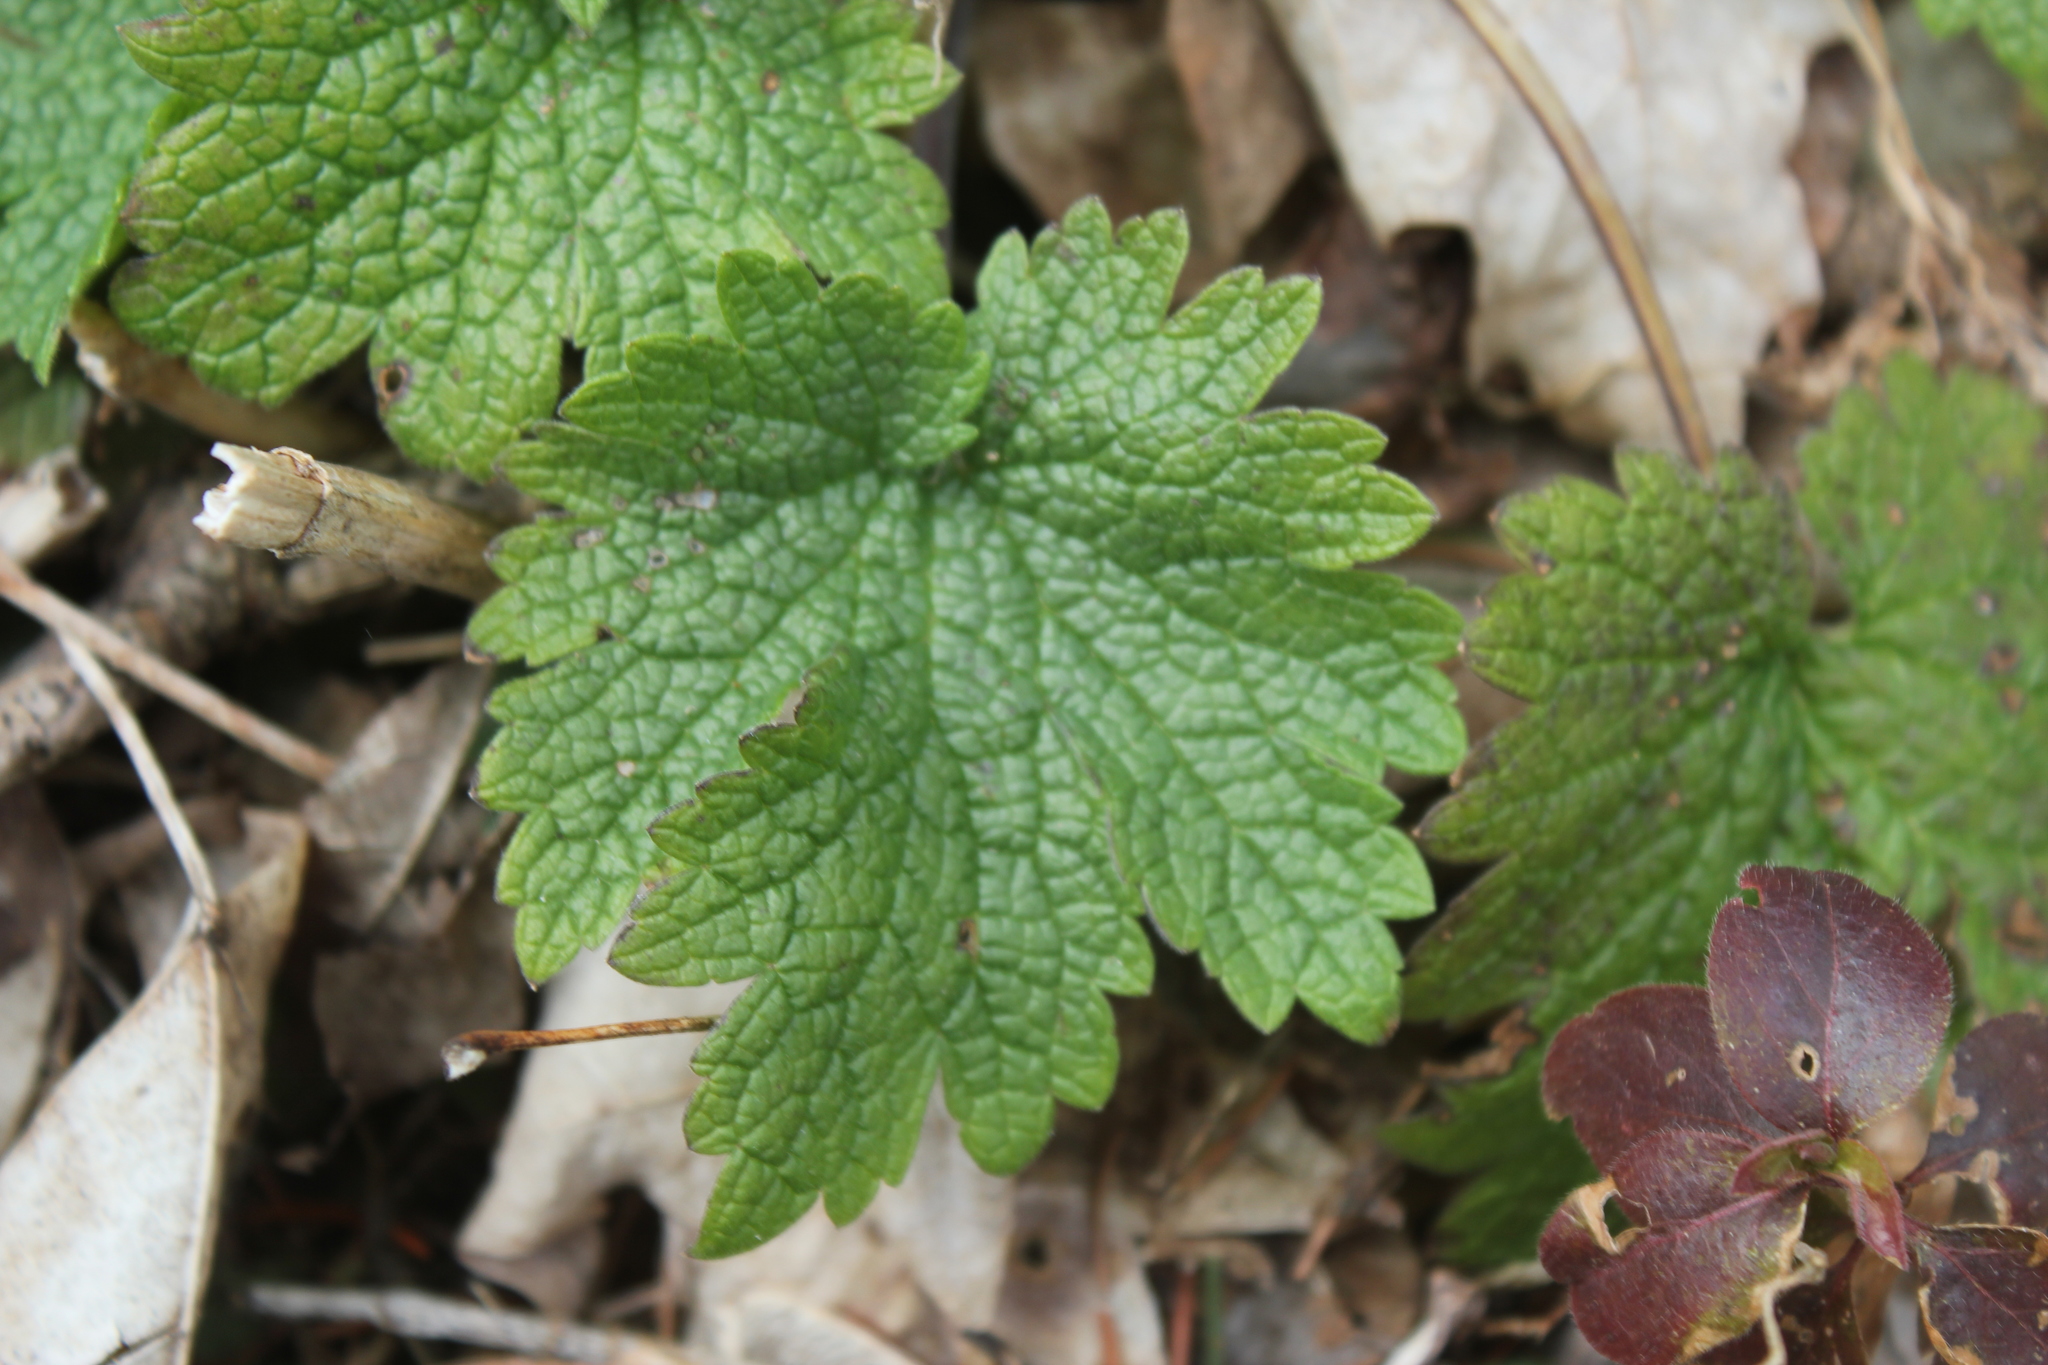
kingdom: Plantae
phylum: Tracheophyta
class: Magnoliopsida
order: Lamiales
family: Lamiaceae
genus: Leonurus
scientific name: Leonurus cardiaca
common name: Motherwort
